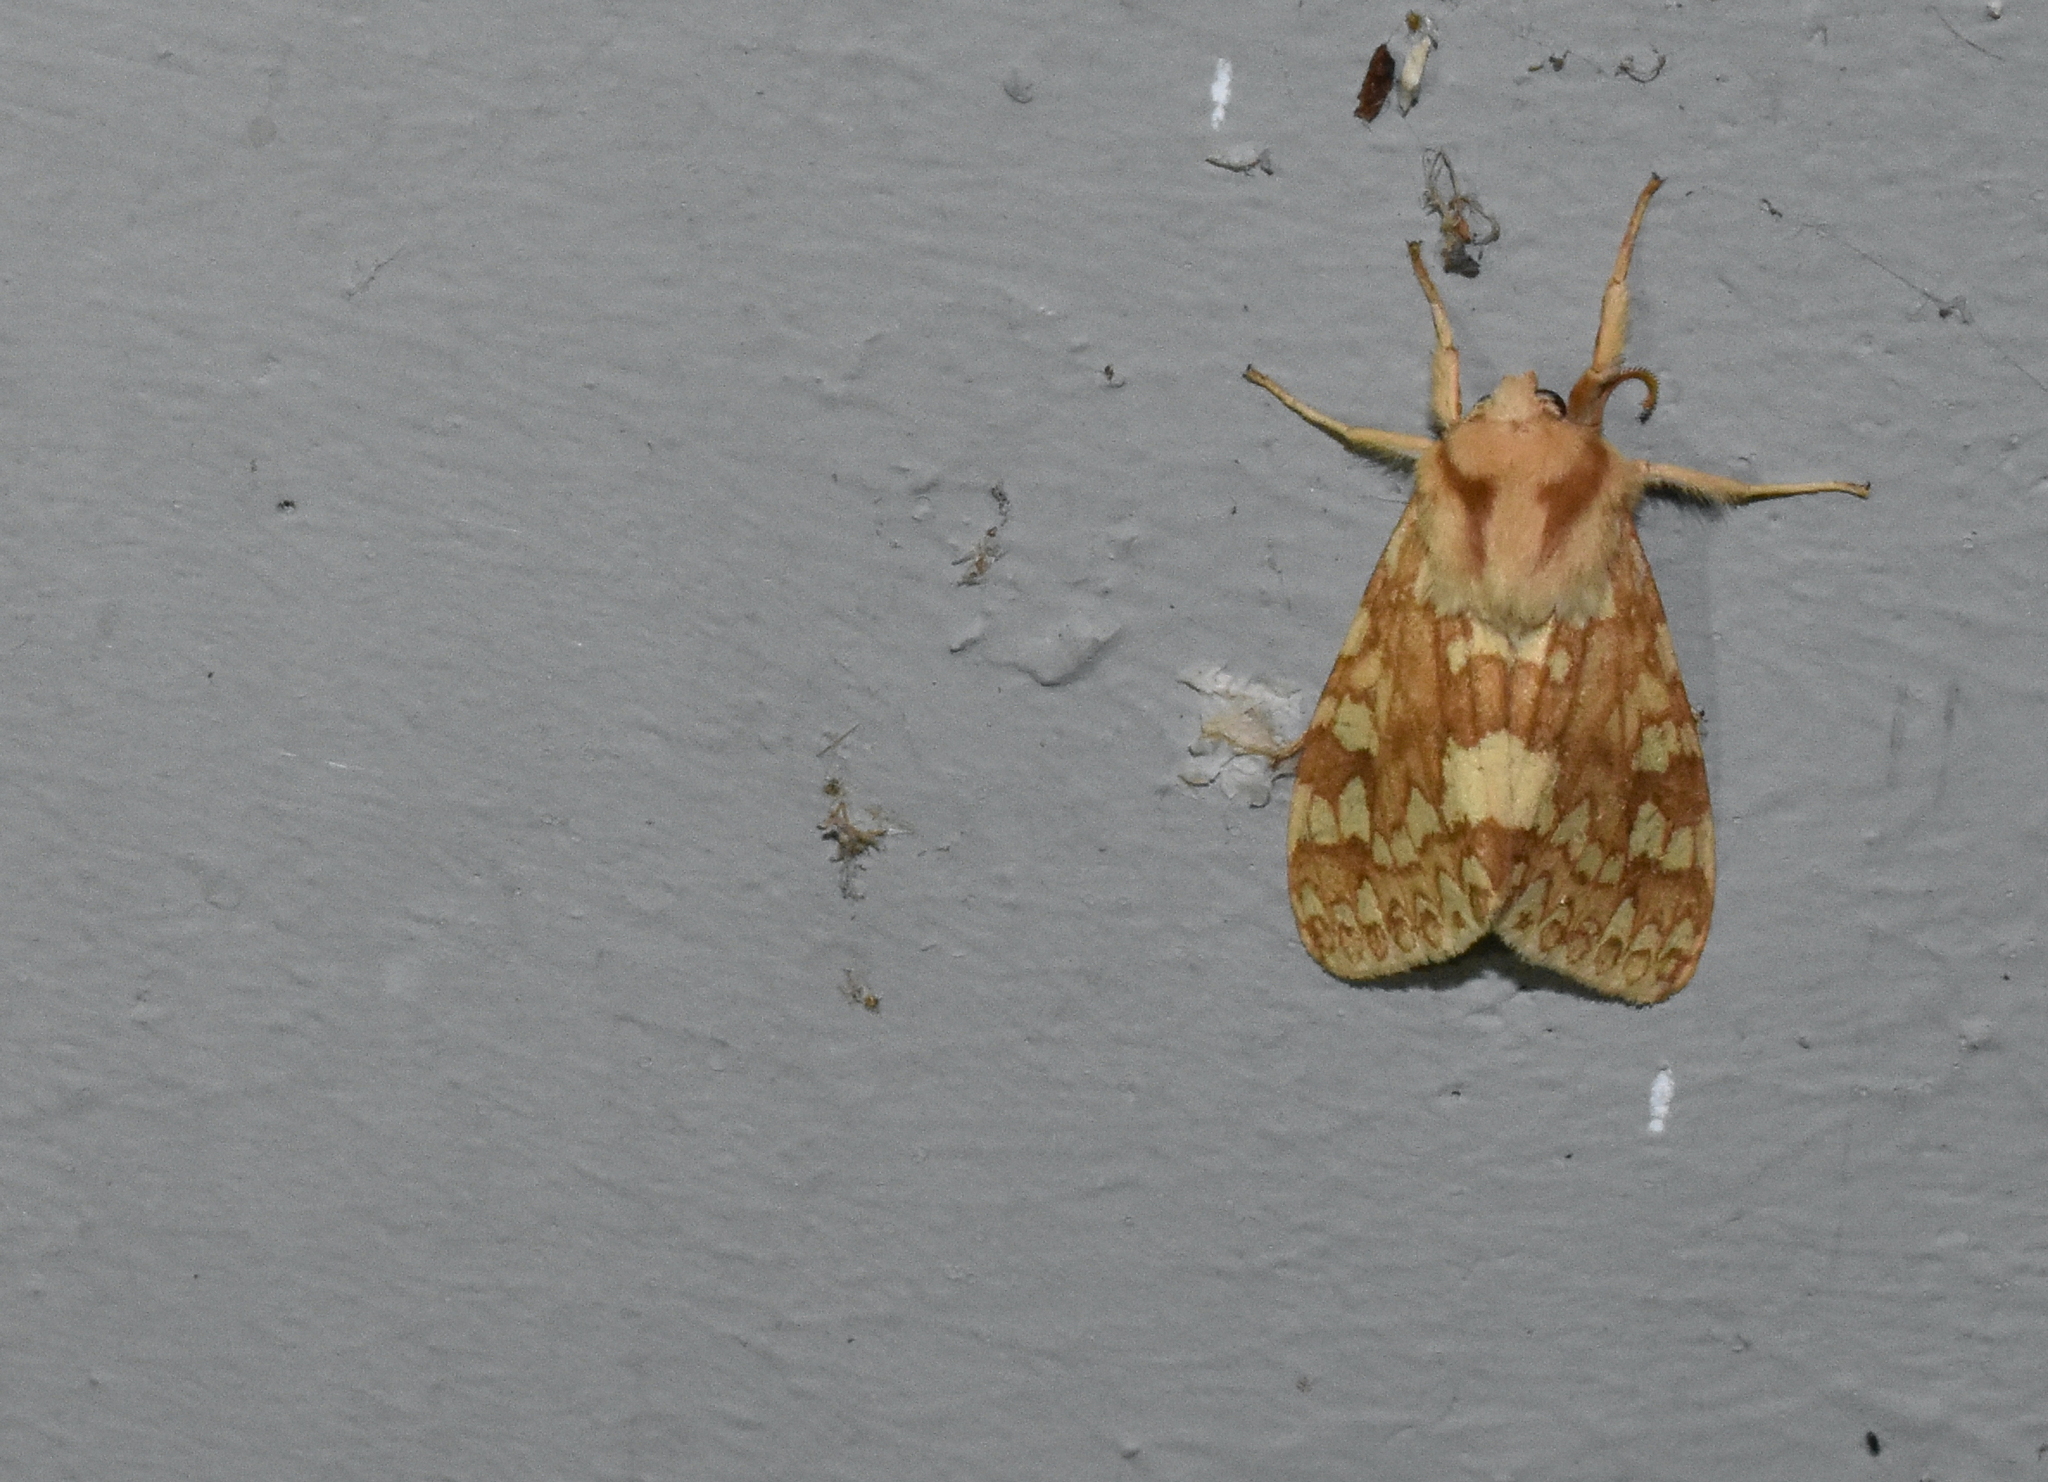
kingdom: Animalia
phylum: Arthropoda
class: Insecta
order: Lepidoptera
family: Erebidae
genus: Lophocampa
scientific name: Lophocampa maculata
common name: Spotted tussock moth
